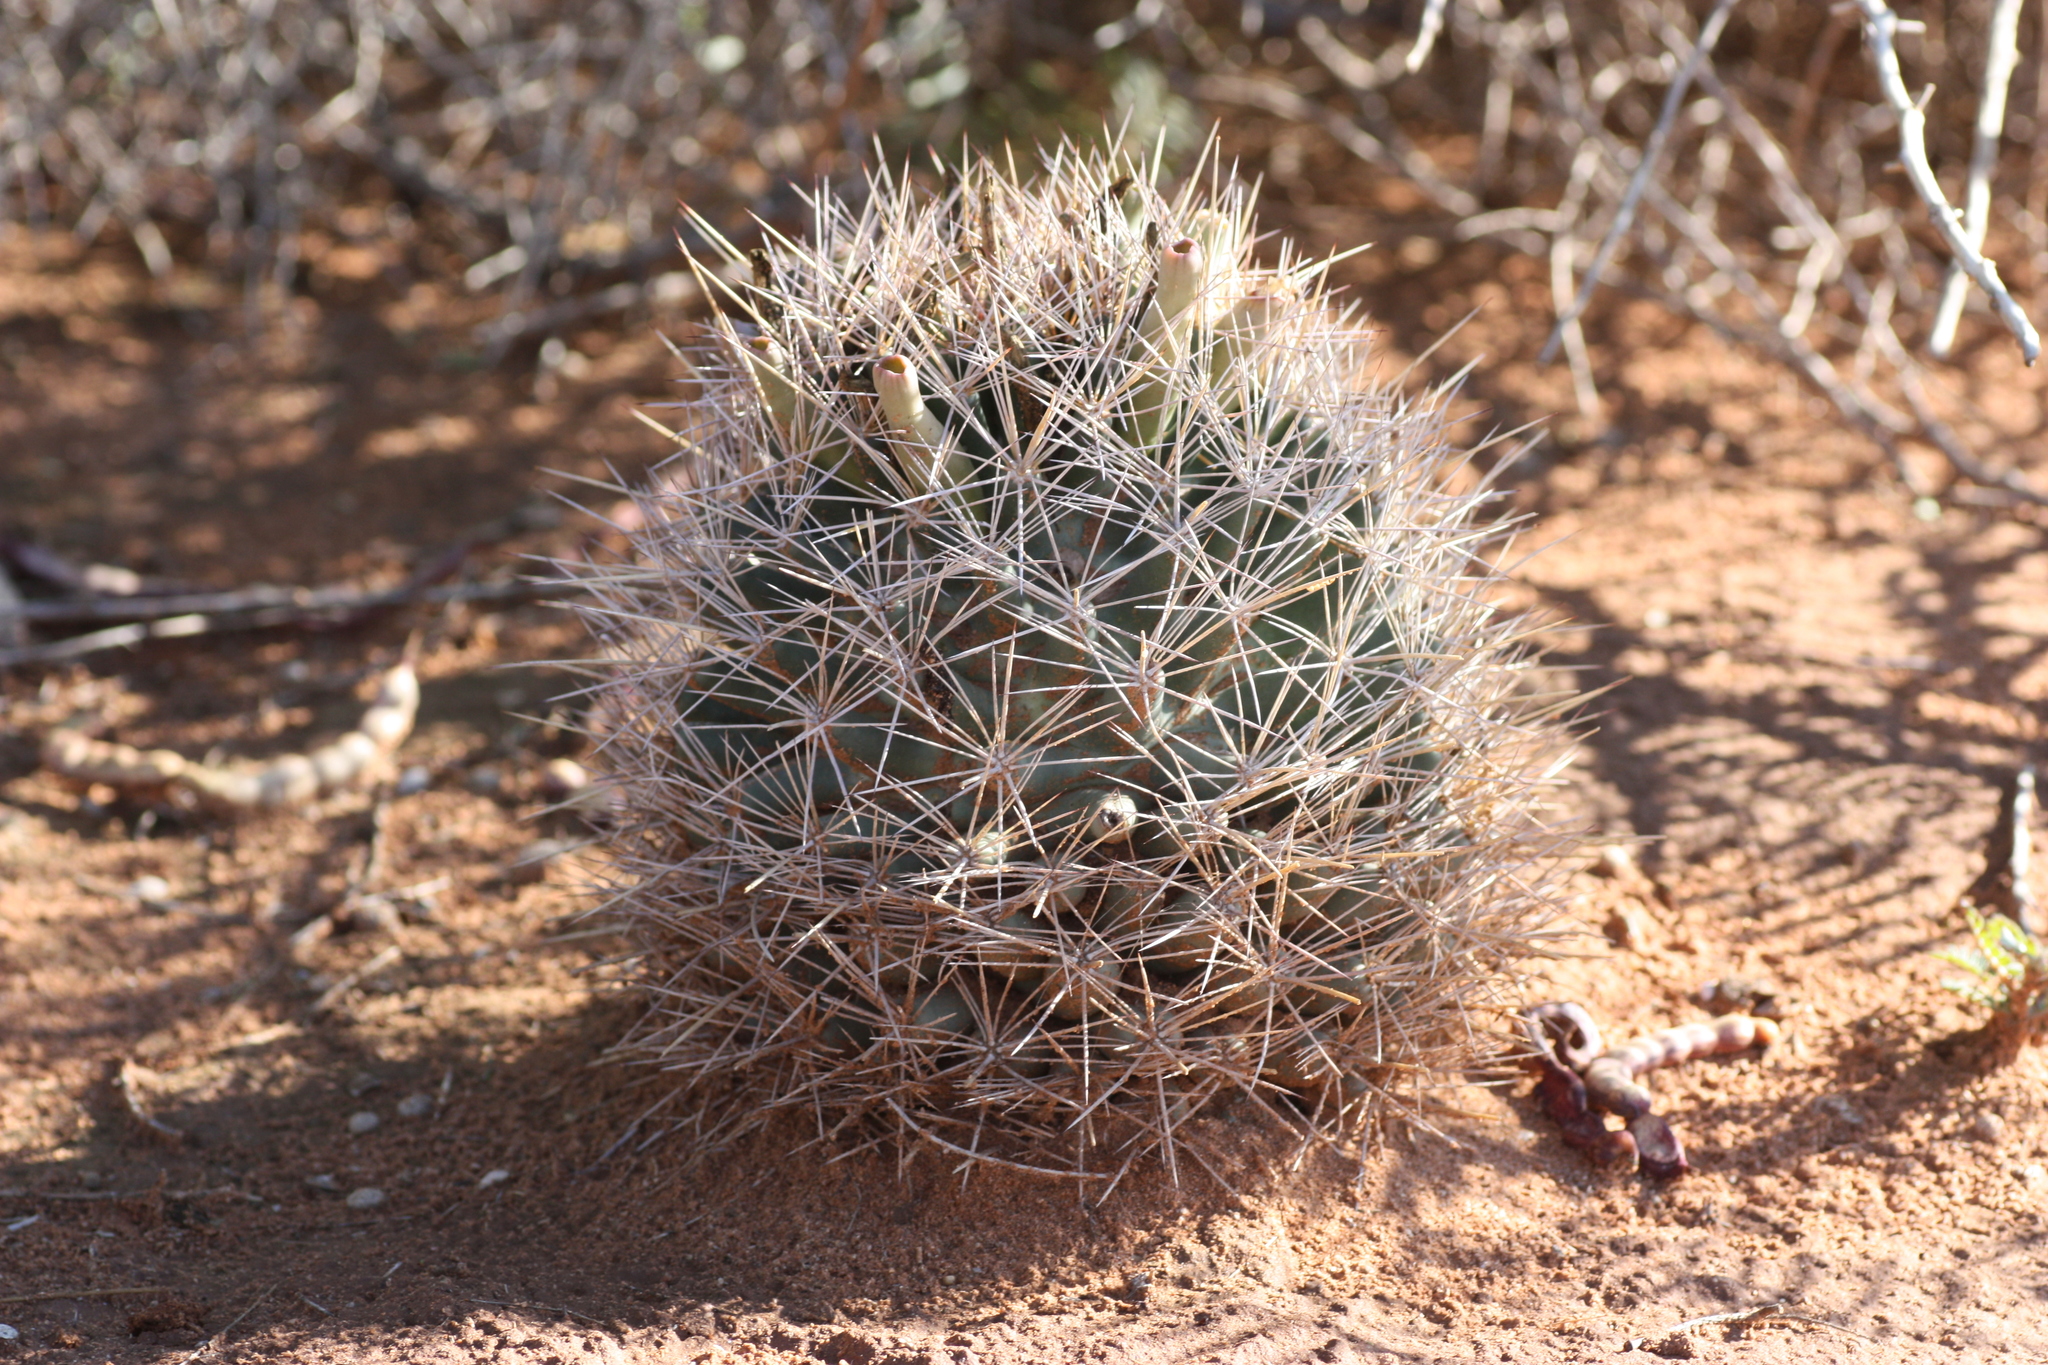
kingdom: Plantae
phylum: Tracheophyta
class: Magnoliopsida
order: Caryophyllales
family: Cactaceae
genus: Coryphantha
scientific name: Coryphantha robustispina
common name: Pima pineapple cactus
